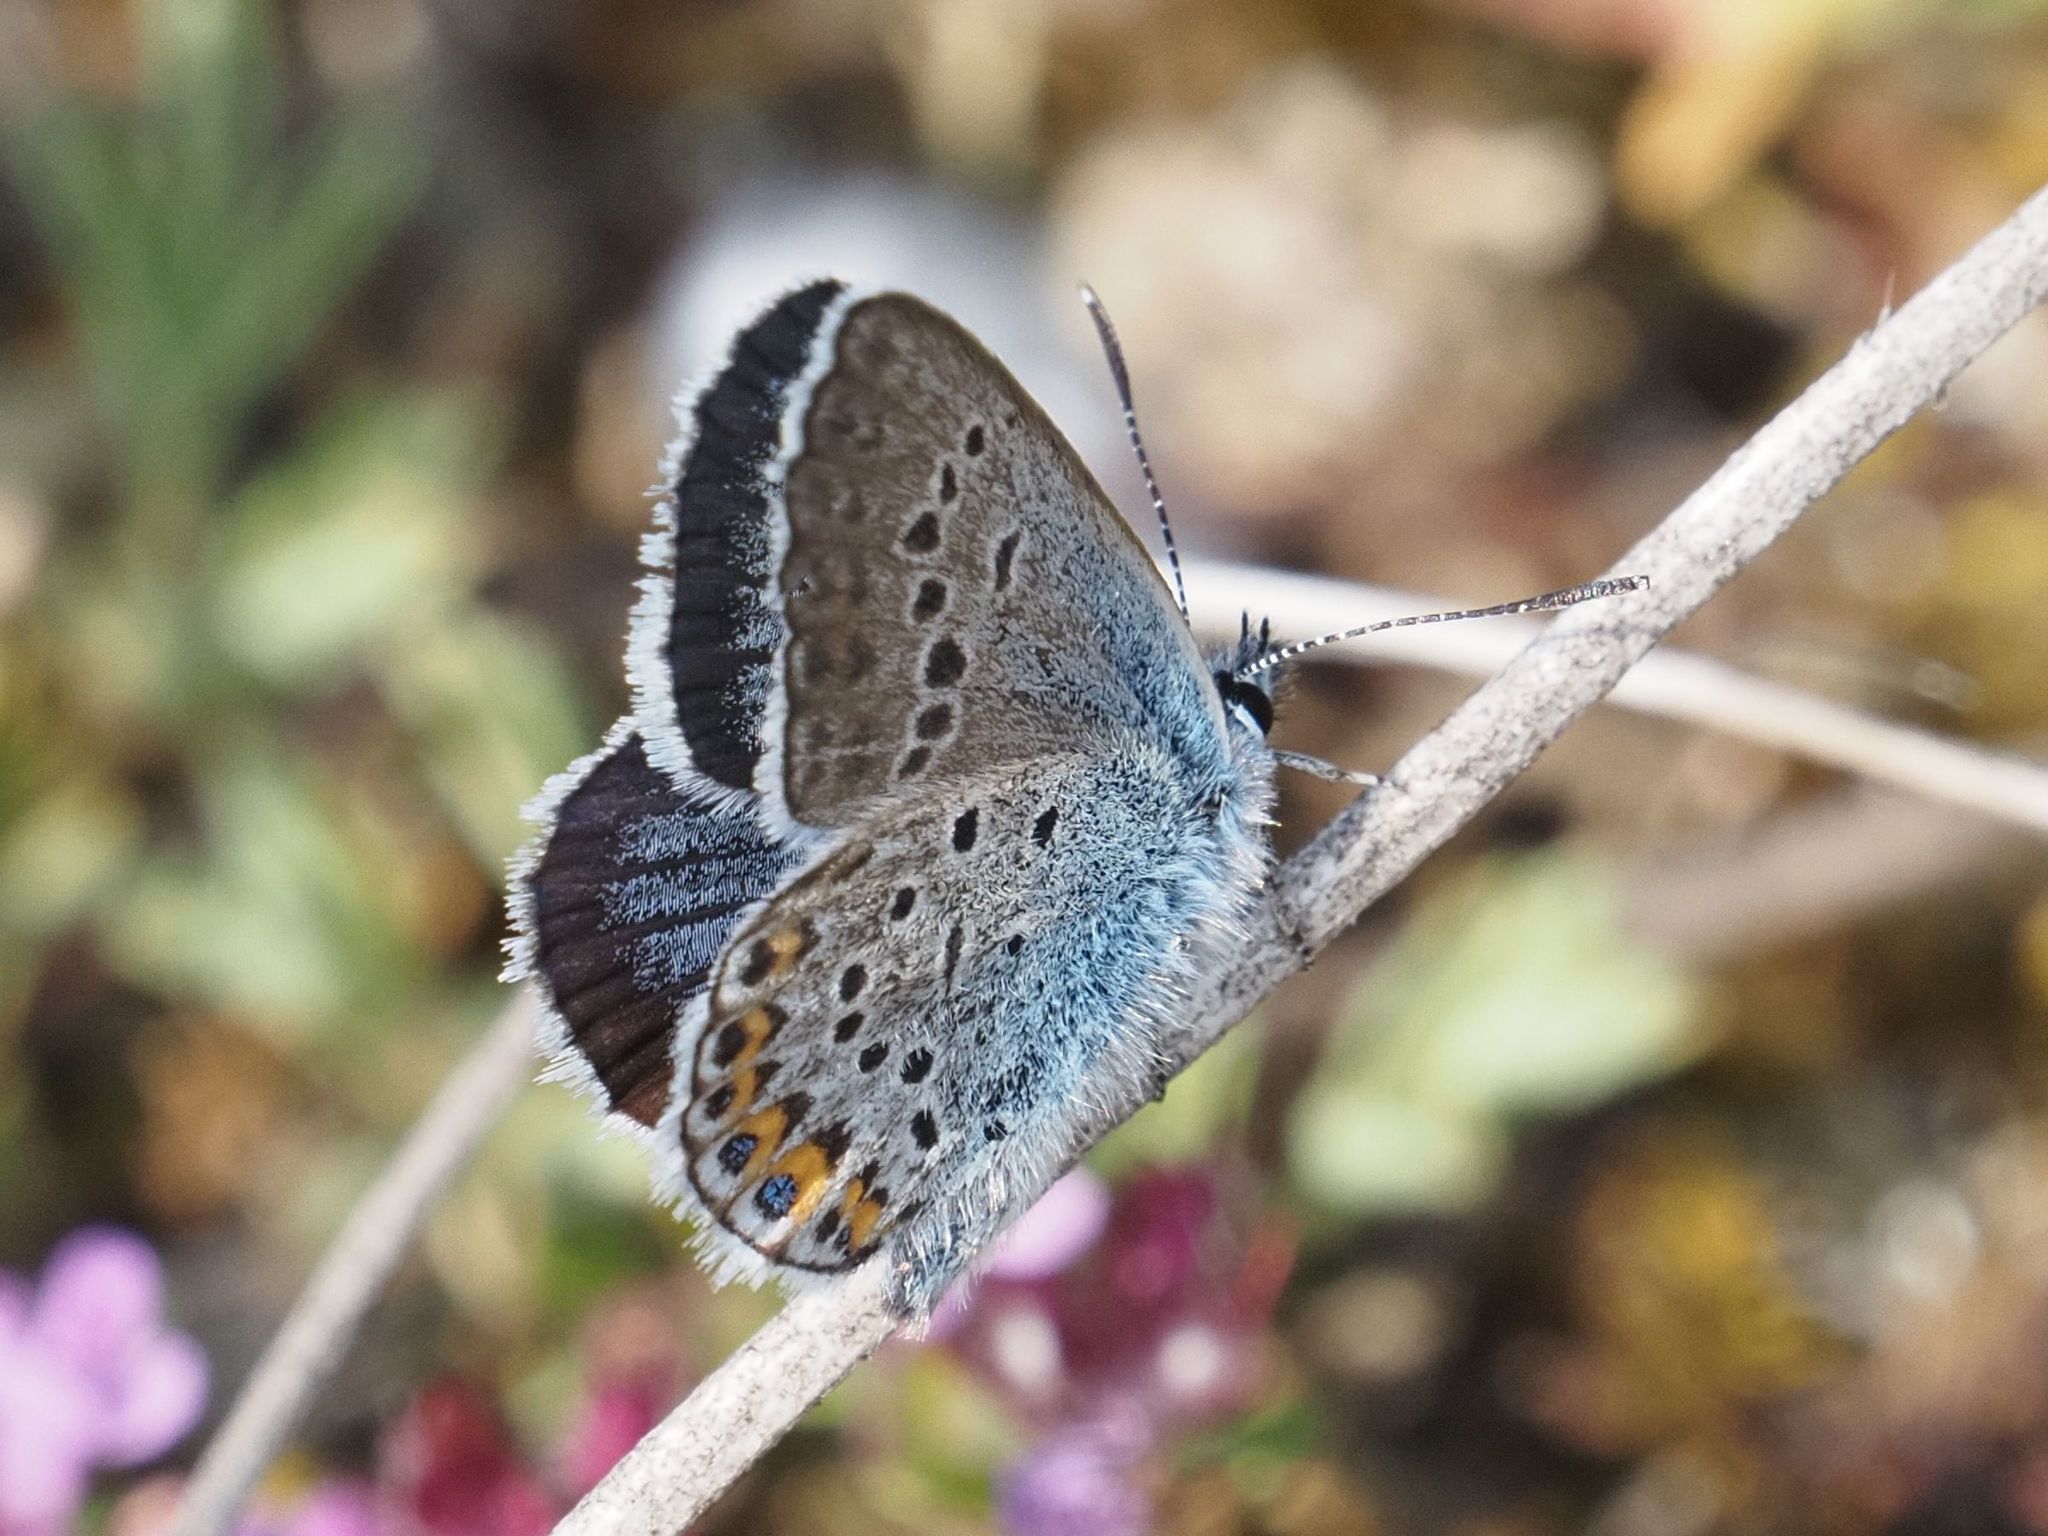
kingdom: Animalia
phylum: Arthropoda
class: Insecta
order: Lepidoptera
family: Lycaenidae
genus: Plebejus
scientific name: Plebejus argus
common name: Silver-studded blue
